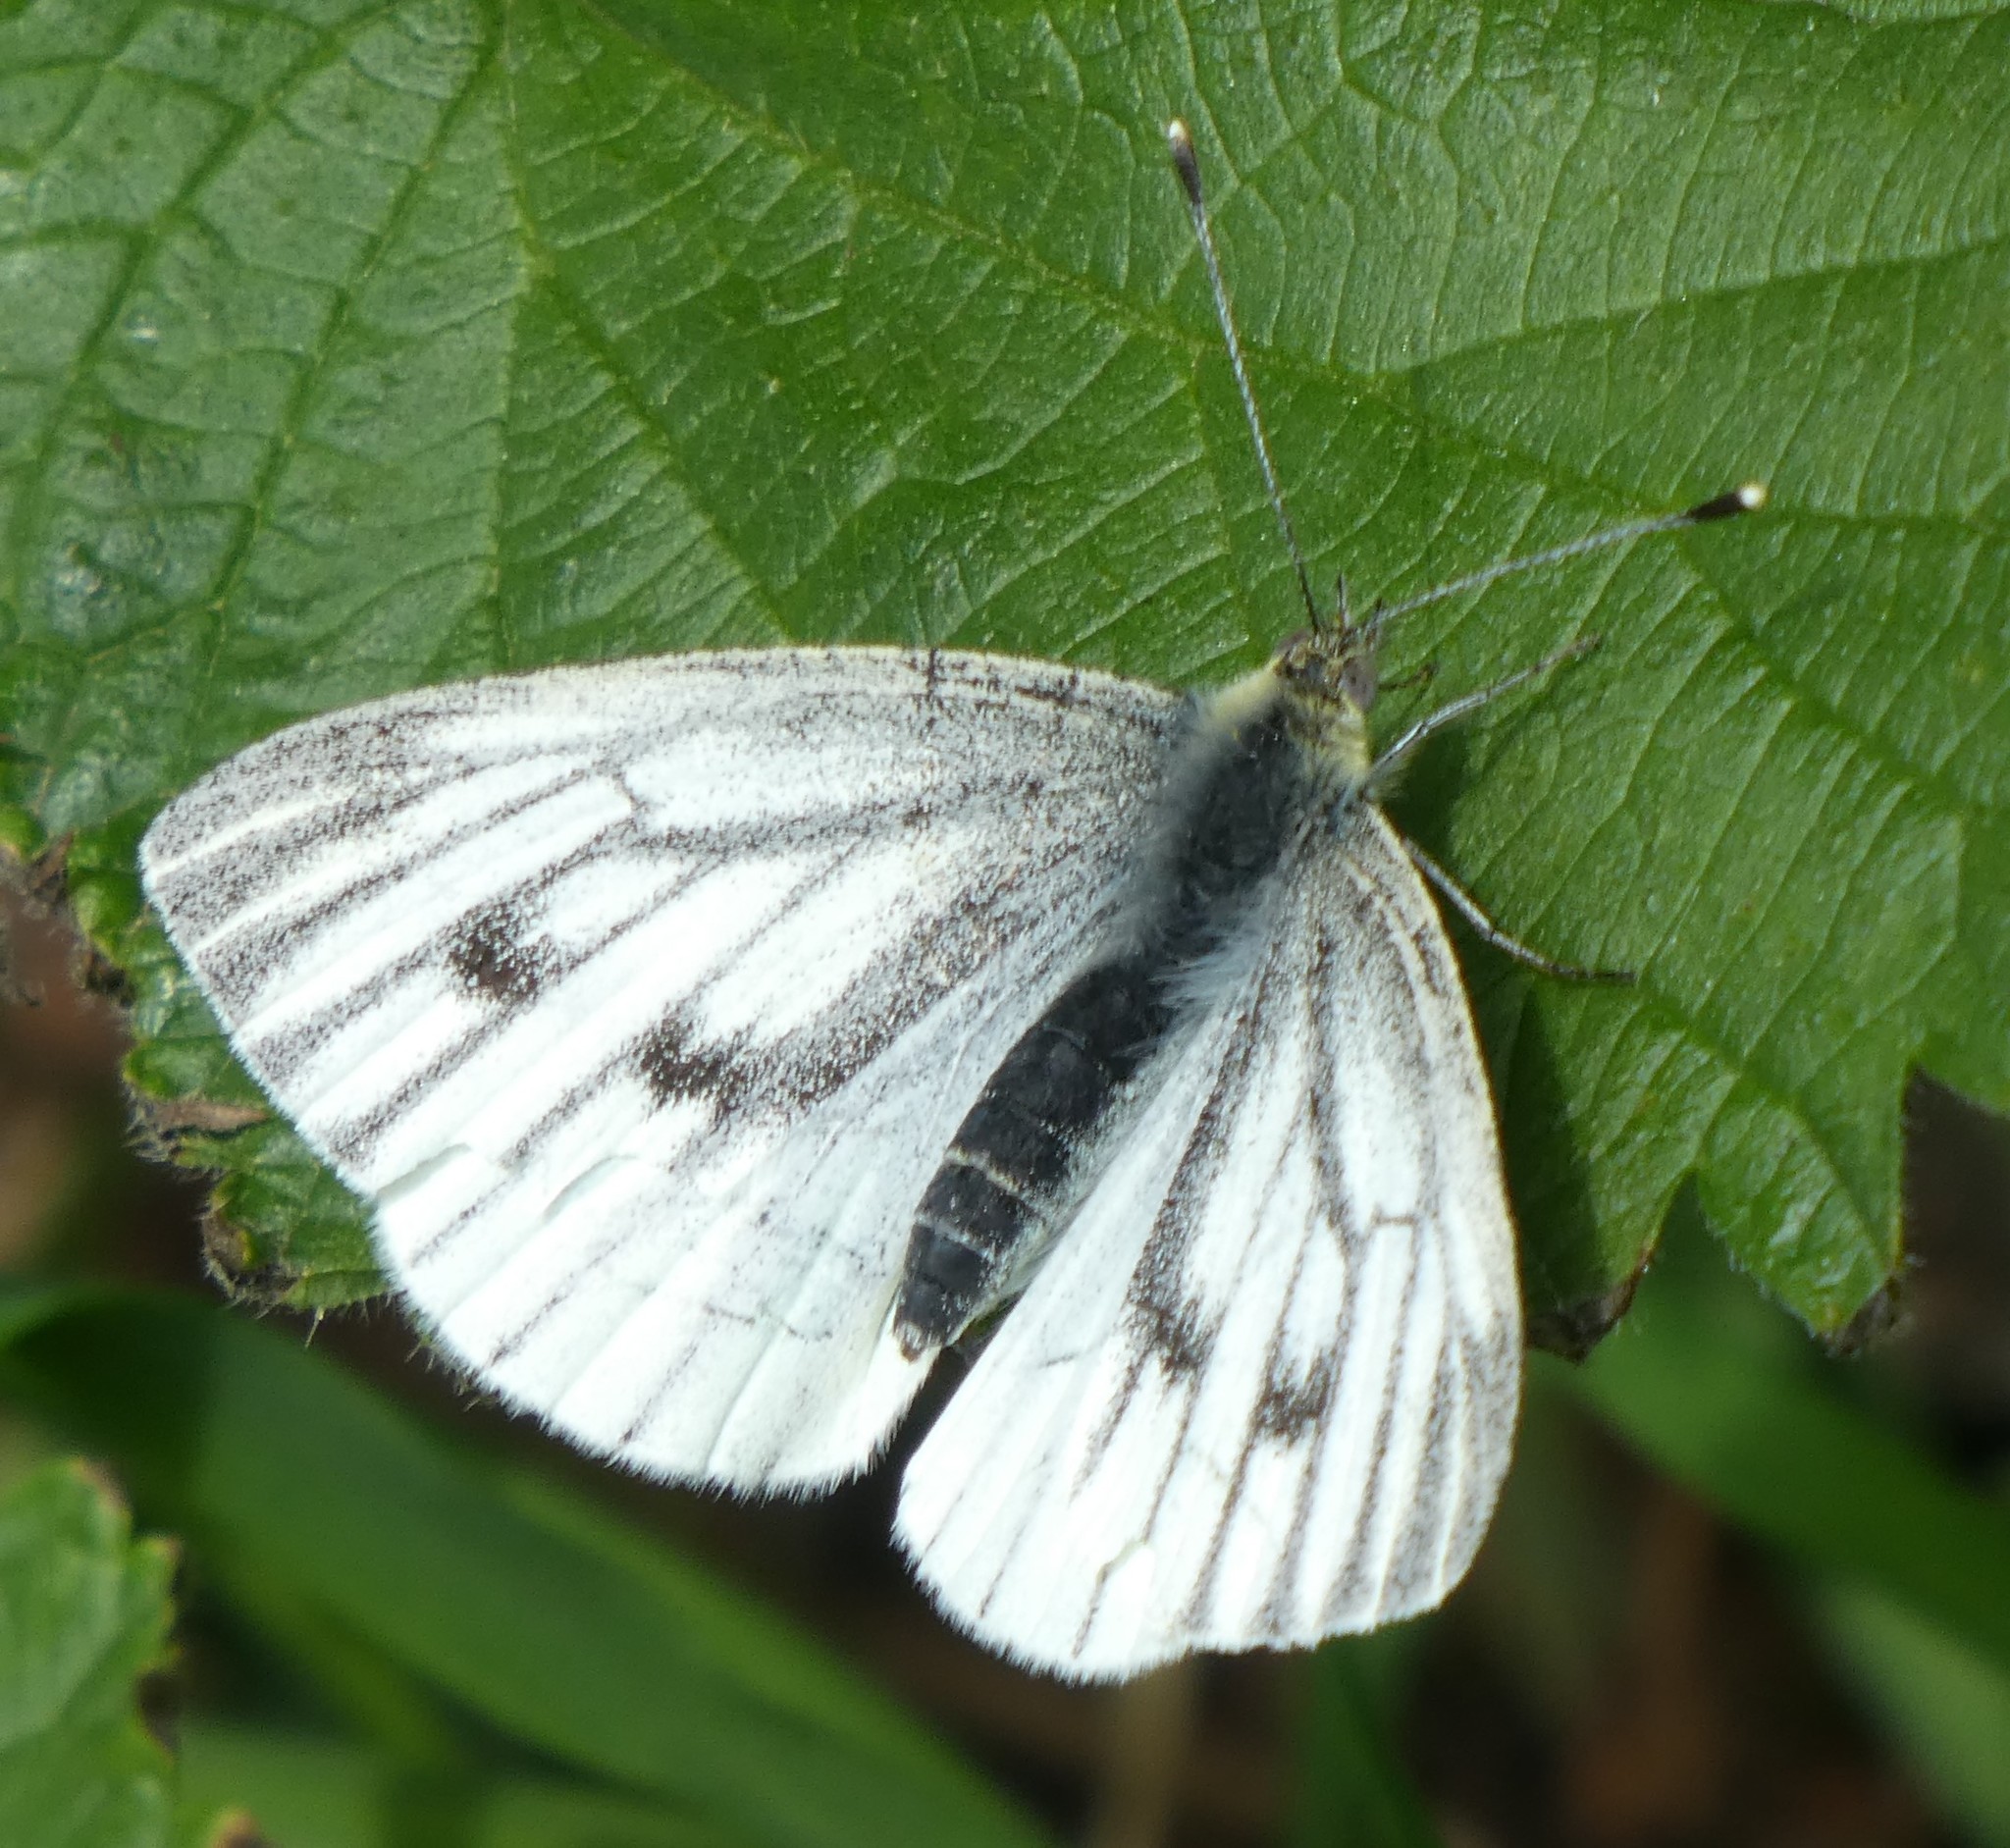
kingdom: Animalia
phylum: Arthropoda
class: Insecta
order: Lepidoptera
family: Pieridae
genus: Pieris
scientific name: Pieris napi
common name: Green-veined white
